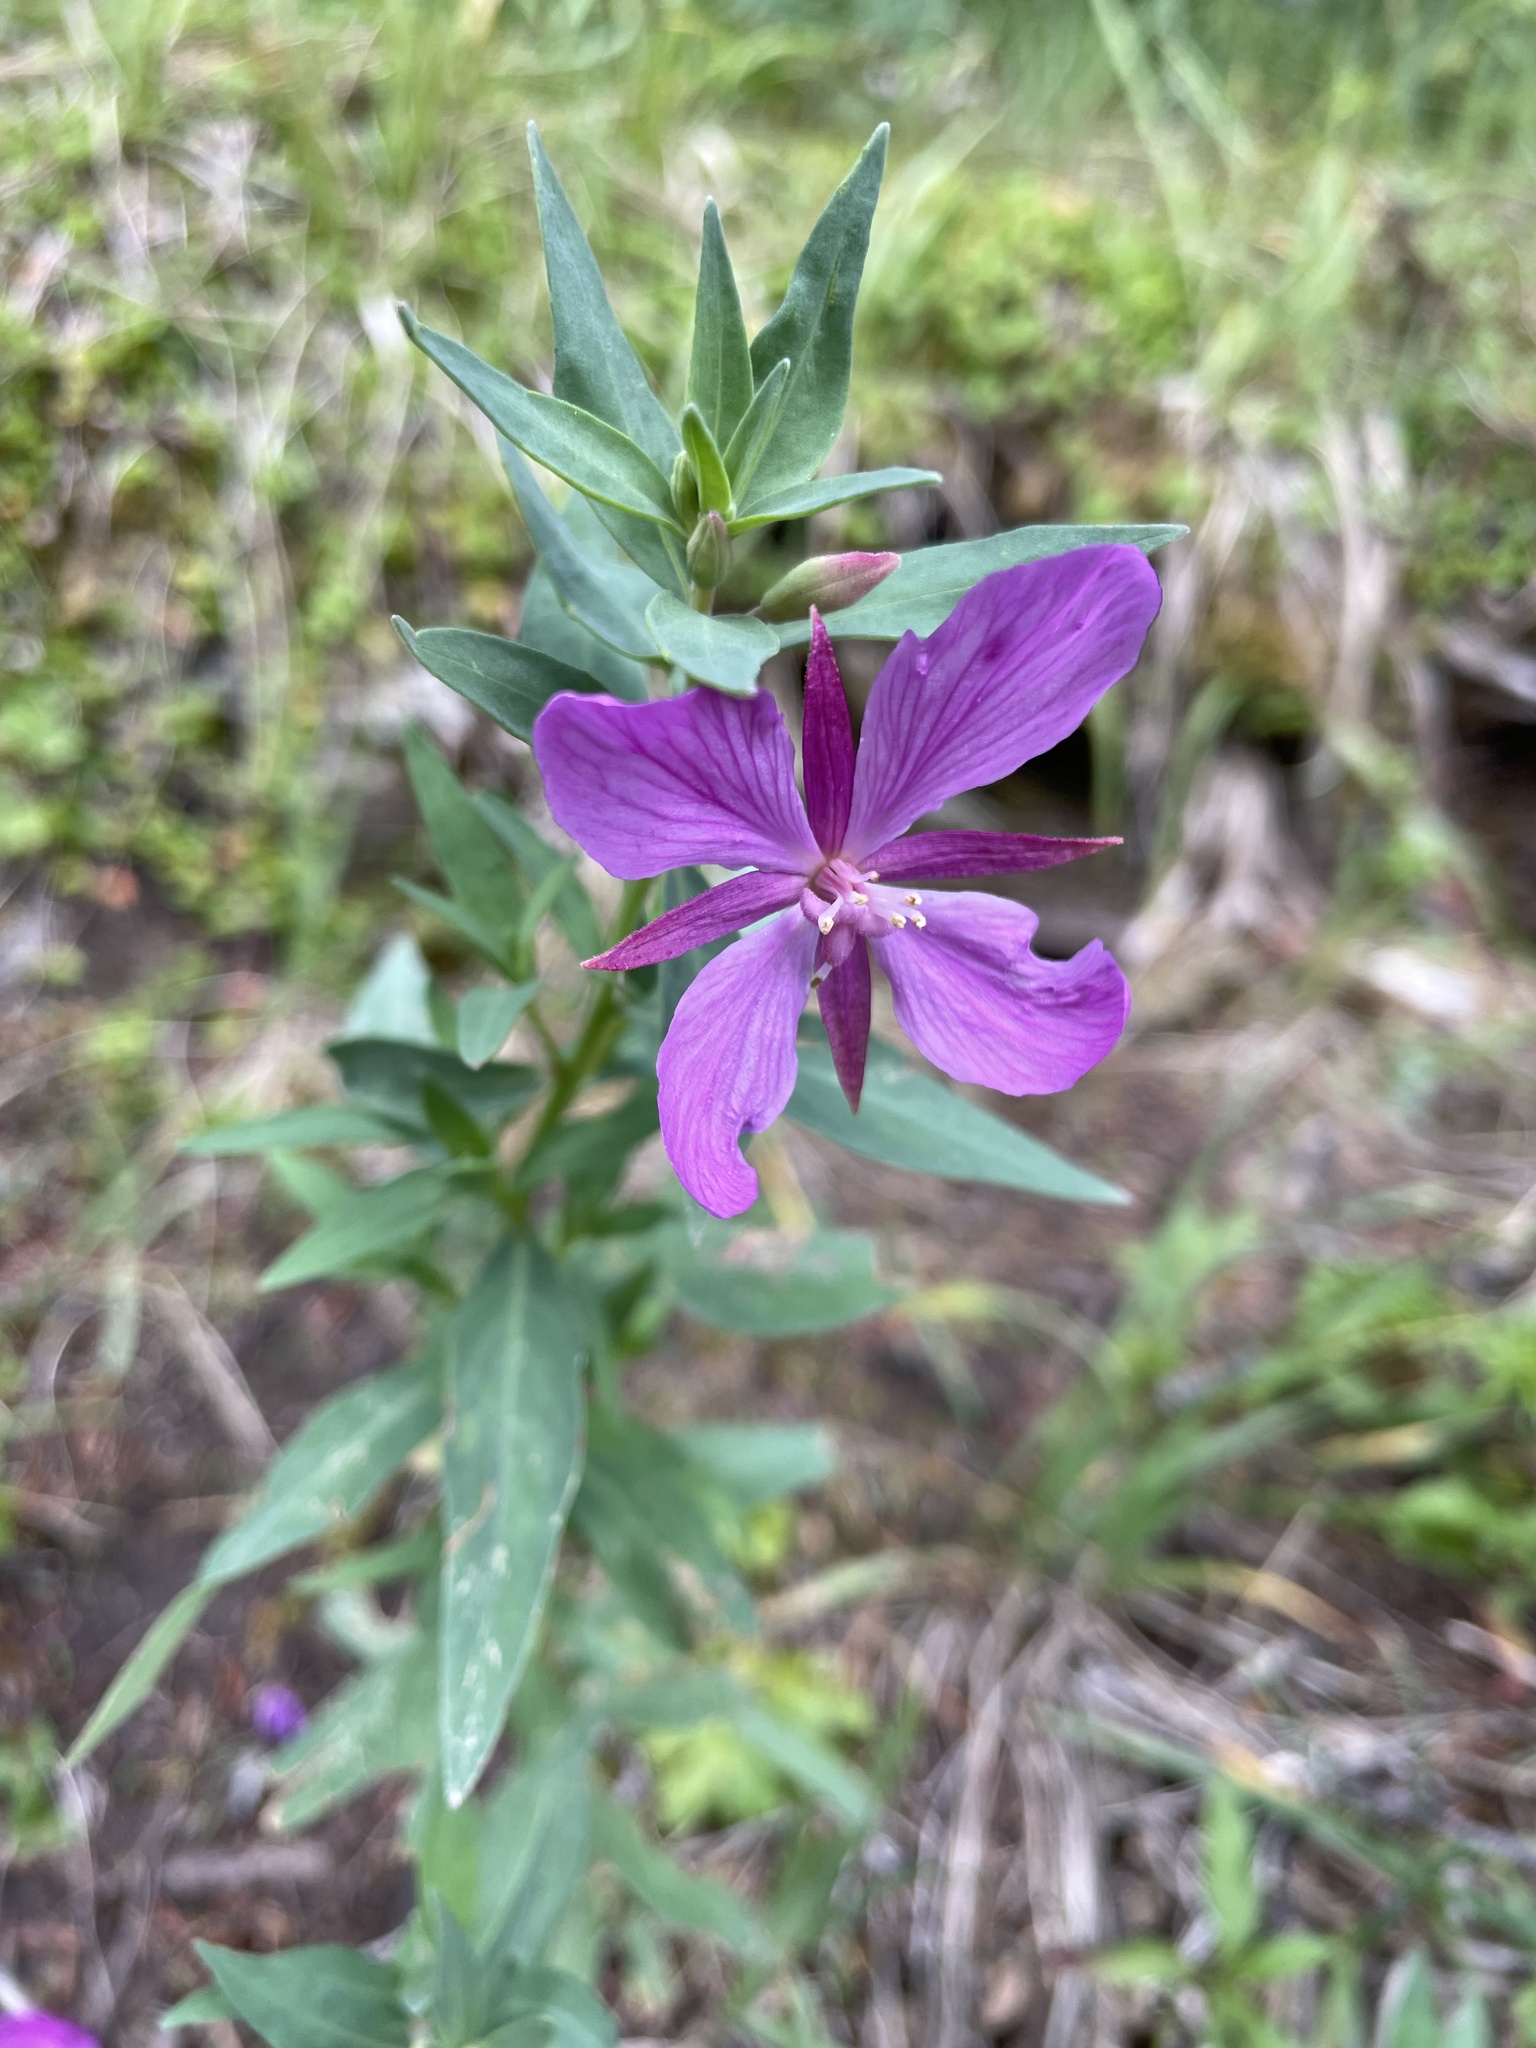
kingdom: Plantae
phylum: Tracheophyta
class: Magnoliopsida
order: Myrtales
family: Onagraceae
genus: Chamaenerion
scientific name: Chamaenerion latifolium
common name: Dwarf fireweed
